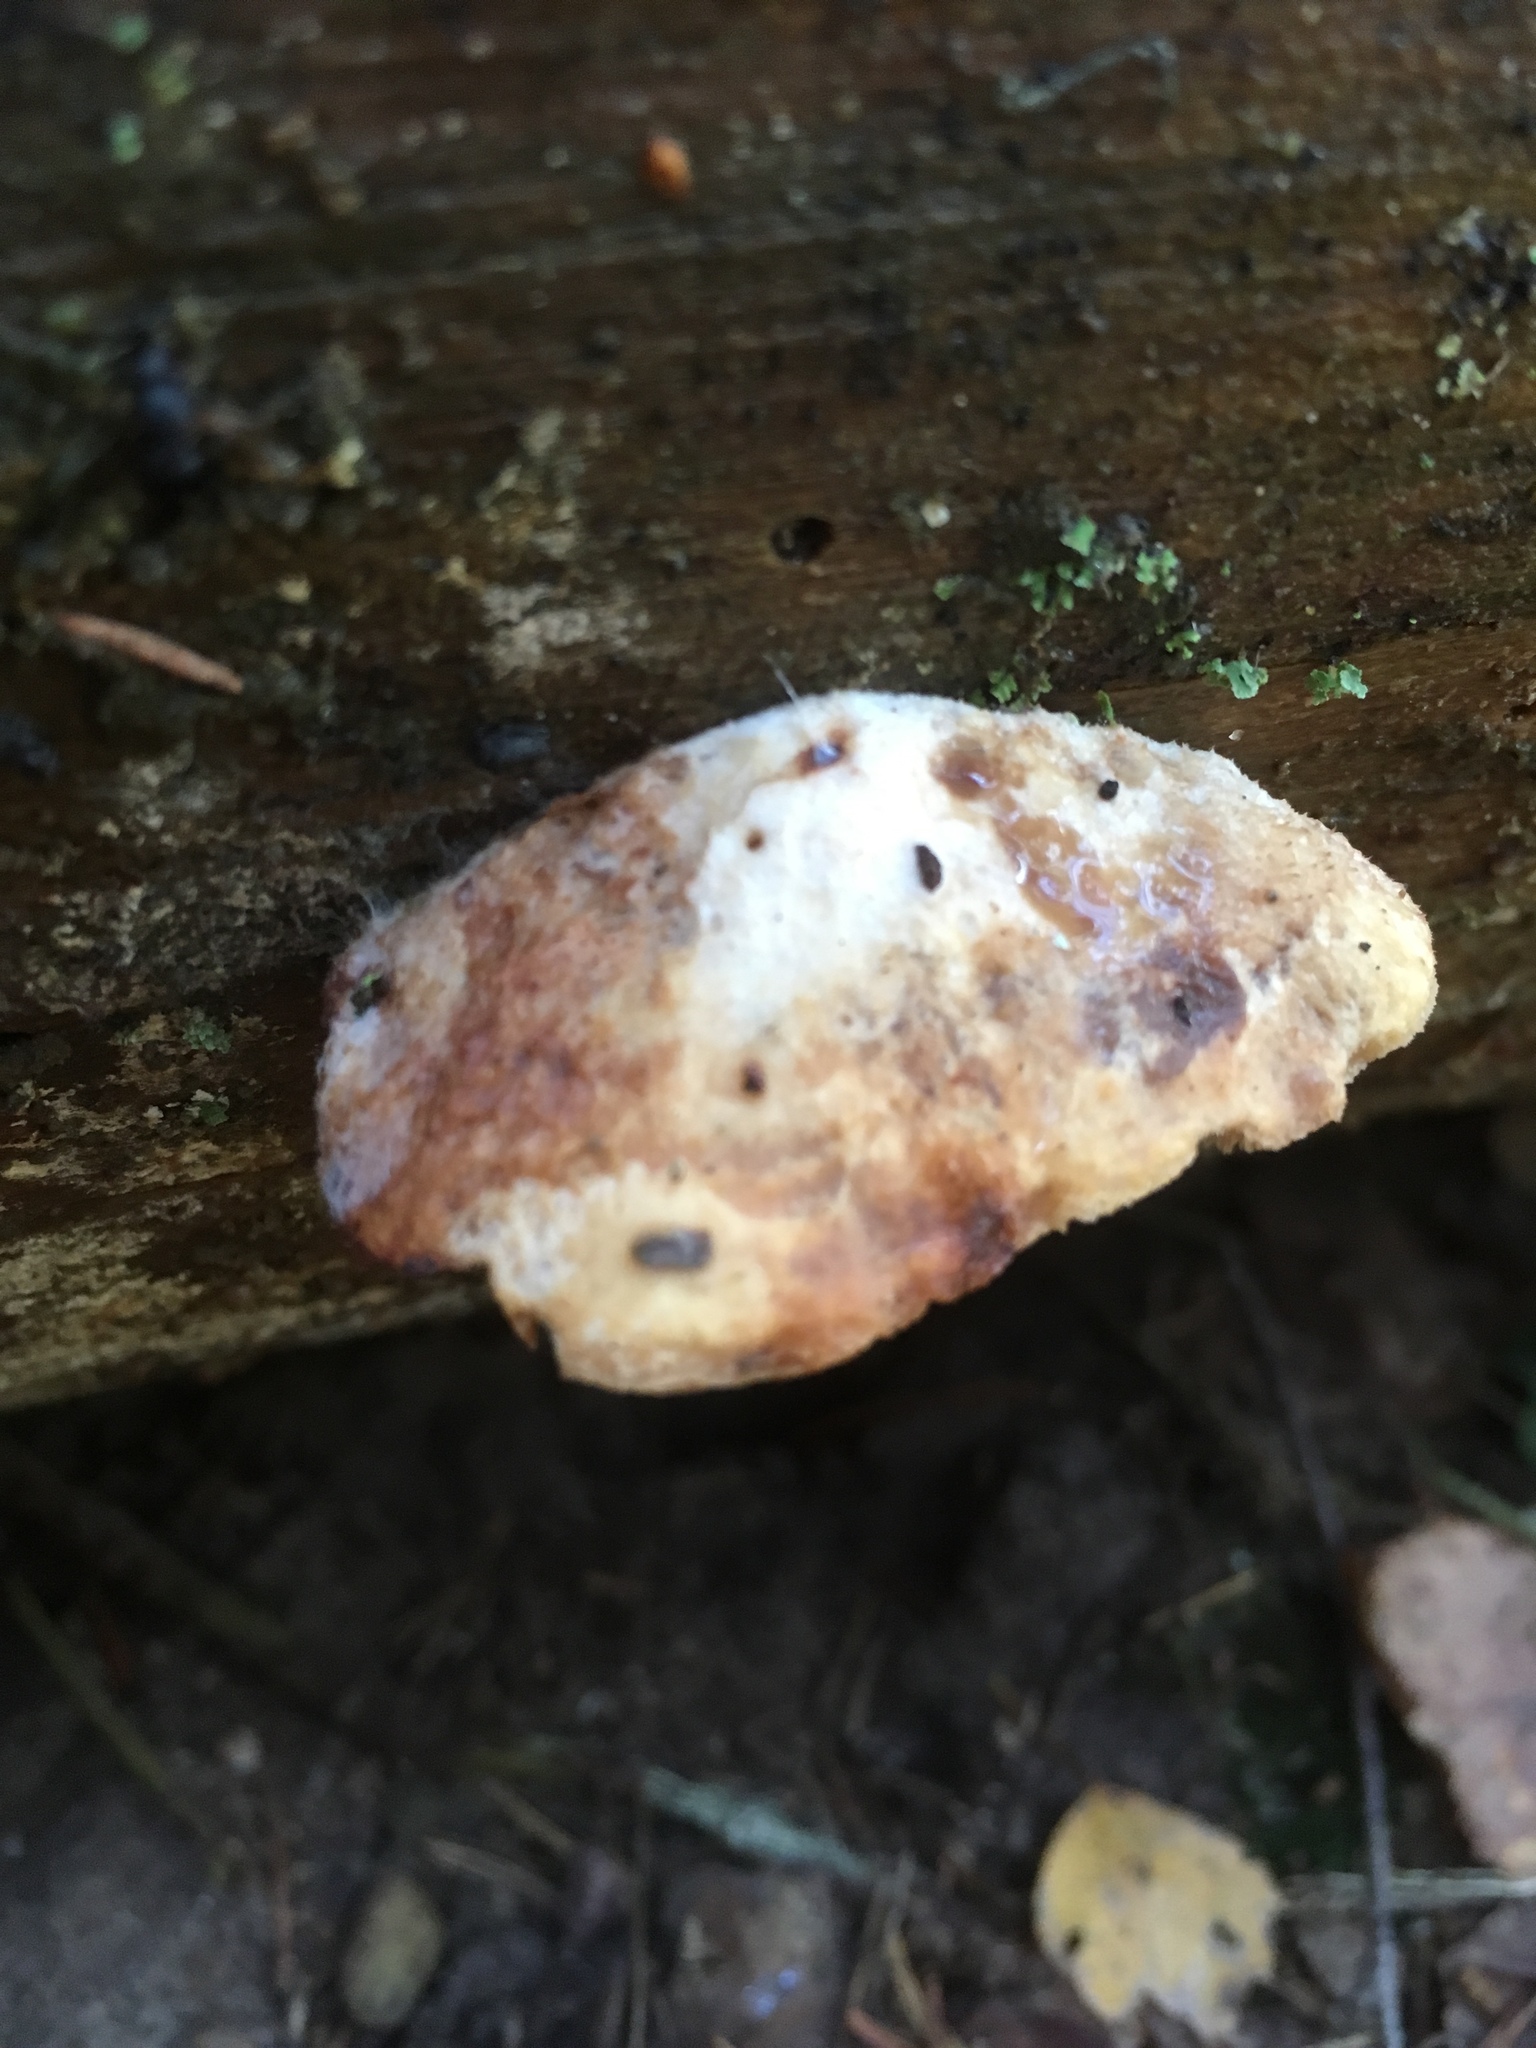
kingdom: Fungi
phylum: Basidiomycota
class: Agaricomycetes
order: Polyporales
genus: Fuscopostia
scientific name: Fuscopostia fragilis
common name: Brown-staining cheese polypore
